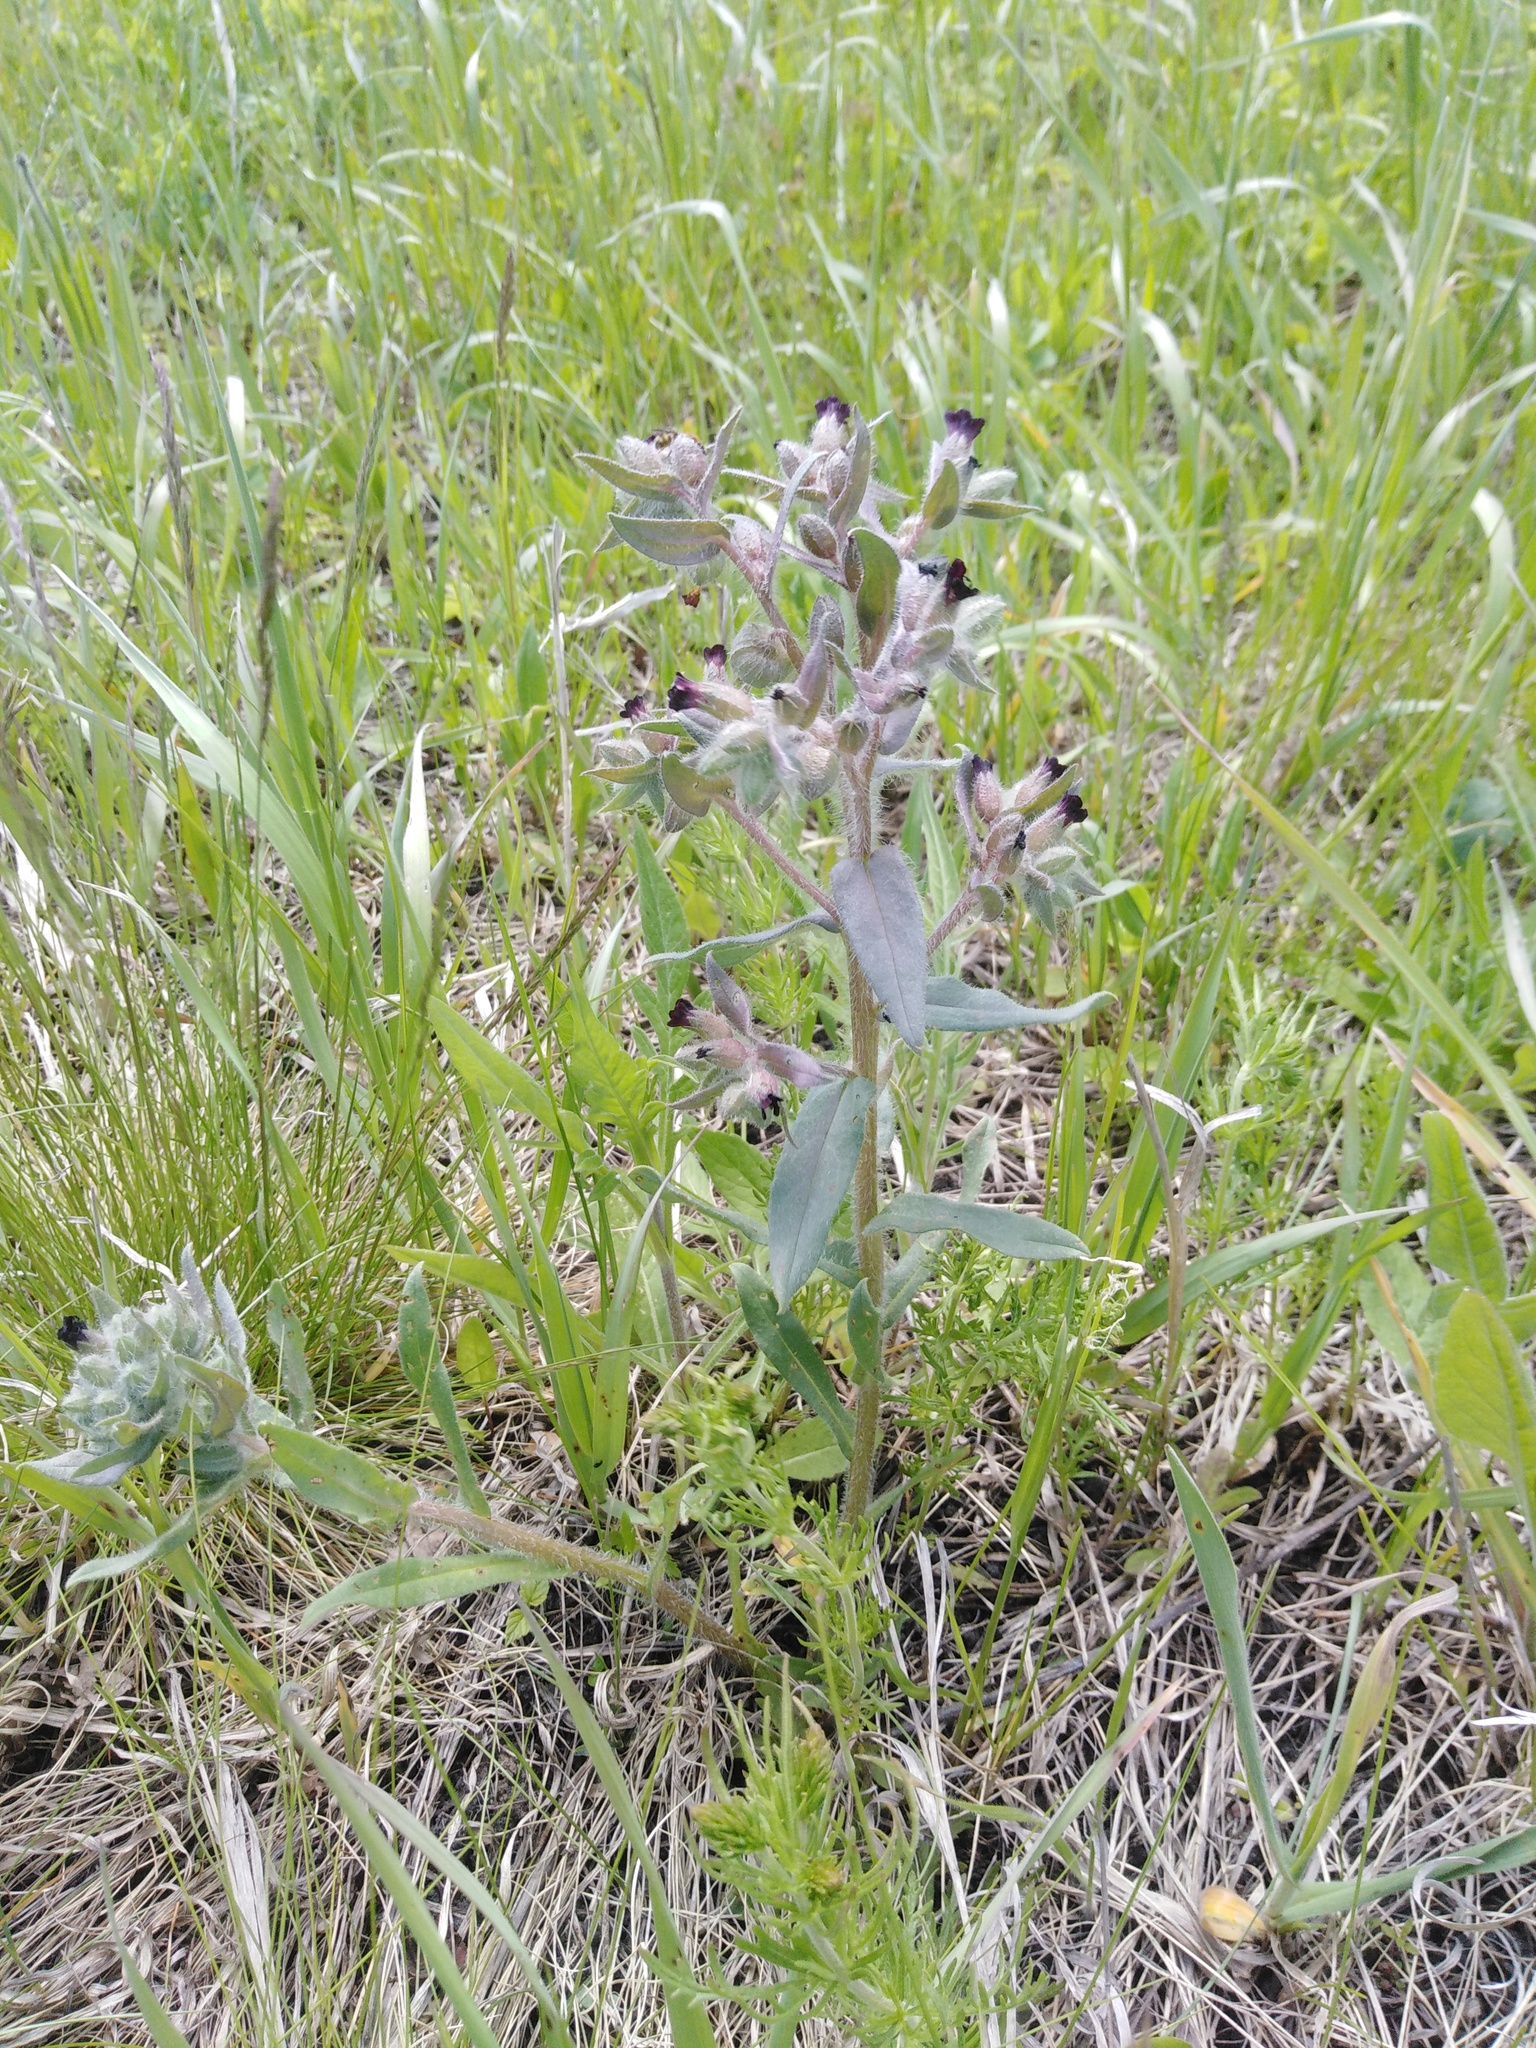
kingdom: Plantae
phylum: Tracheophyta
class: Magnoliopsida
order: Boraginales
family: Boraginaceae
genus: Nonea
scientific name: Nonea pulla
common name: Brown nonea
